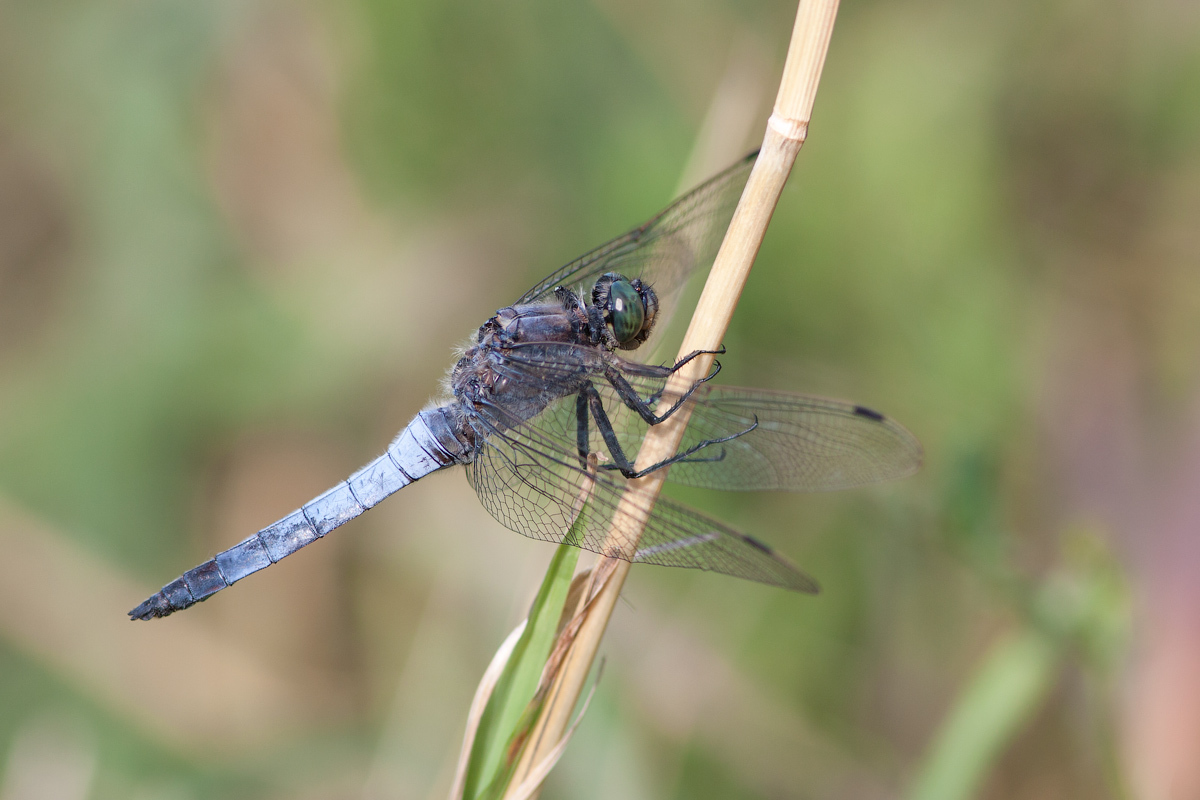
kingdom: Animalia
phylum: Arthropoda
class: Insecta
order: Odonata
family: Libellulidae
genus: Orthetrum
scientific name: Orthetrum cancellatum
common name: Black-tailed skimmer
